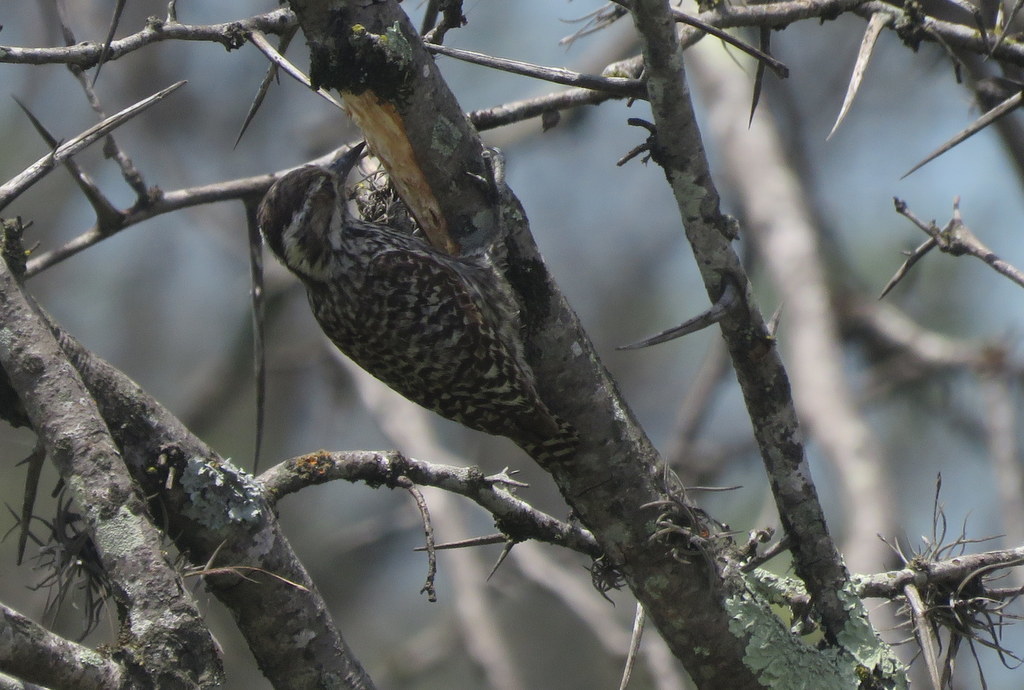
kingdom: Animalia
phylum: Chordata
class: Aves
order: Piciformes
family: Picidae
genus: Veniliornis
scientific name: Veniliornis mixtus
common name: Checkered woodpecker
